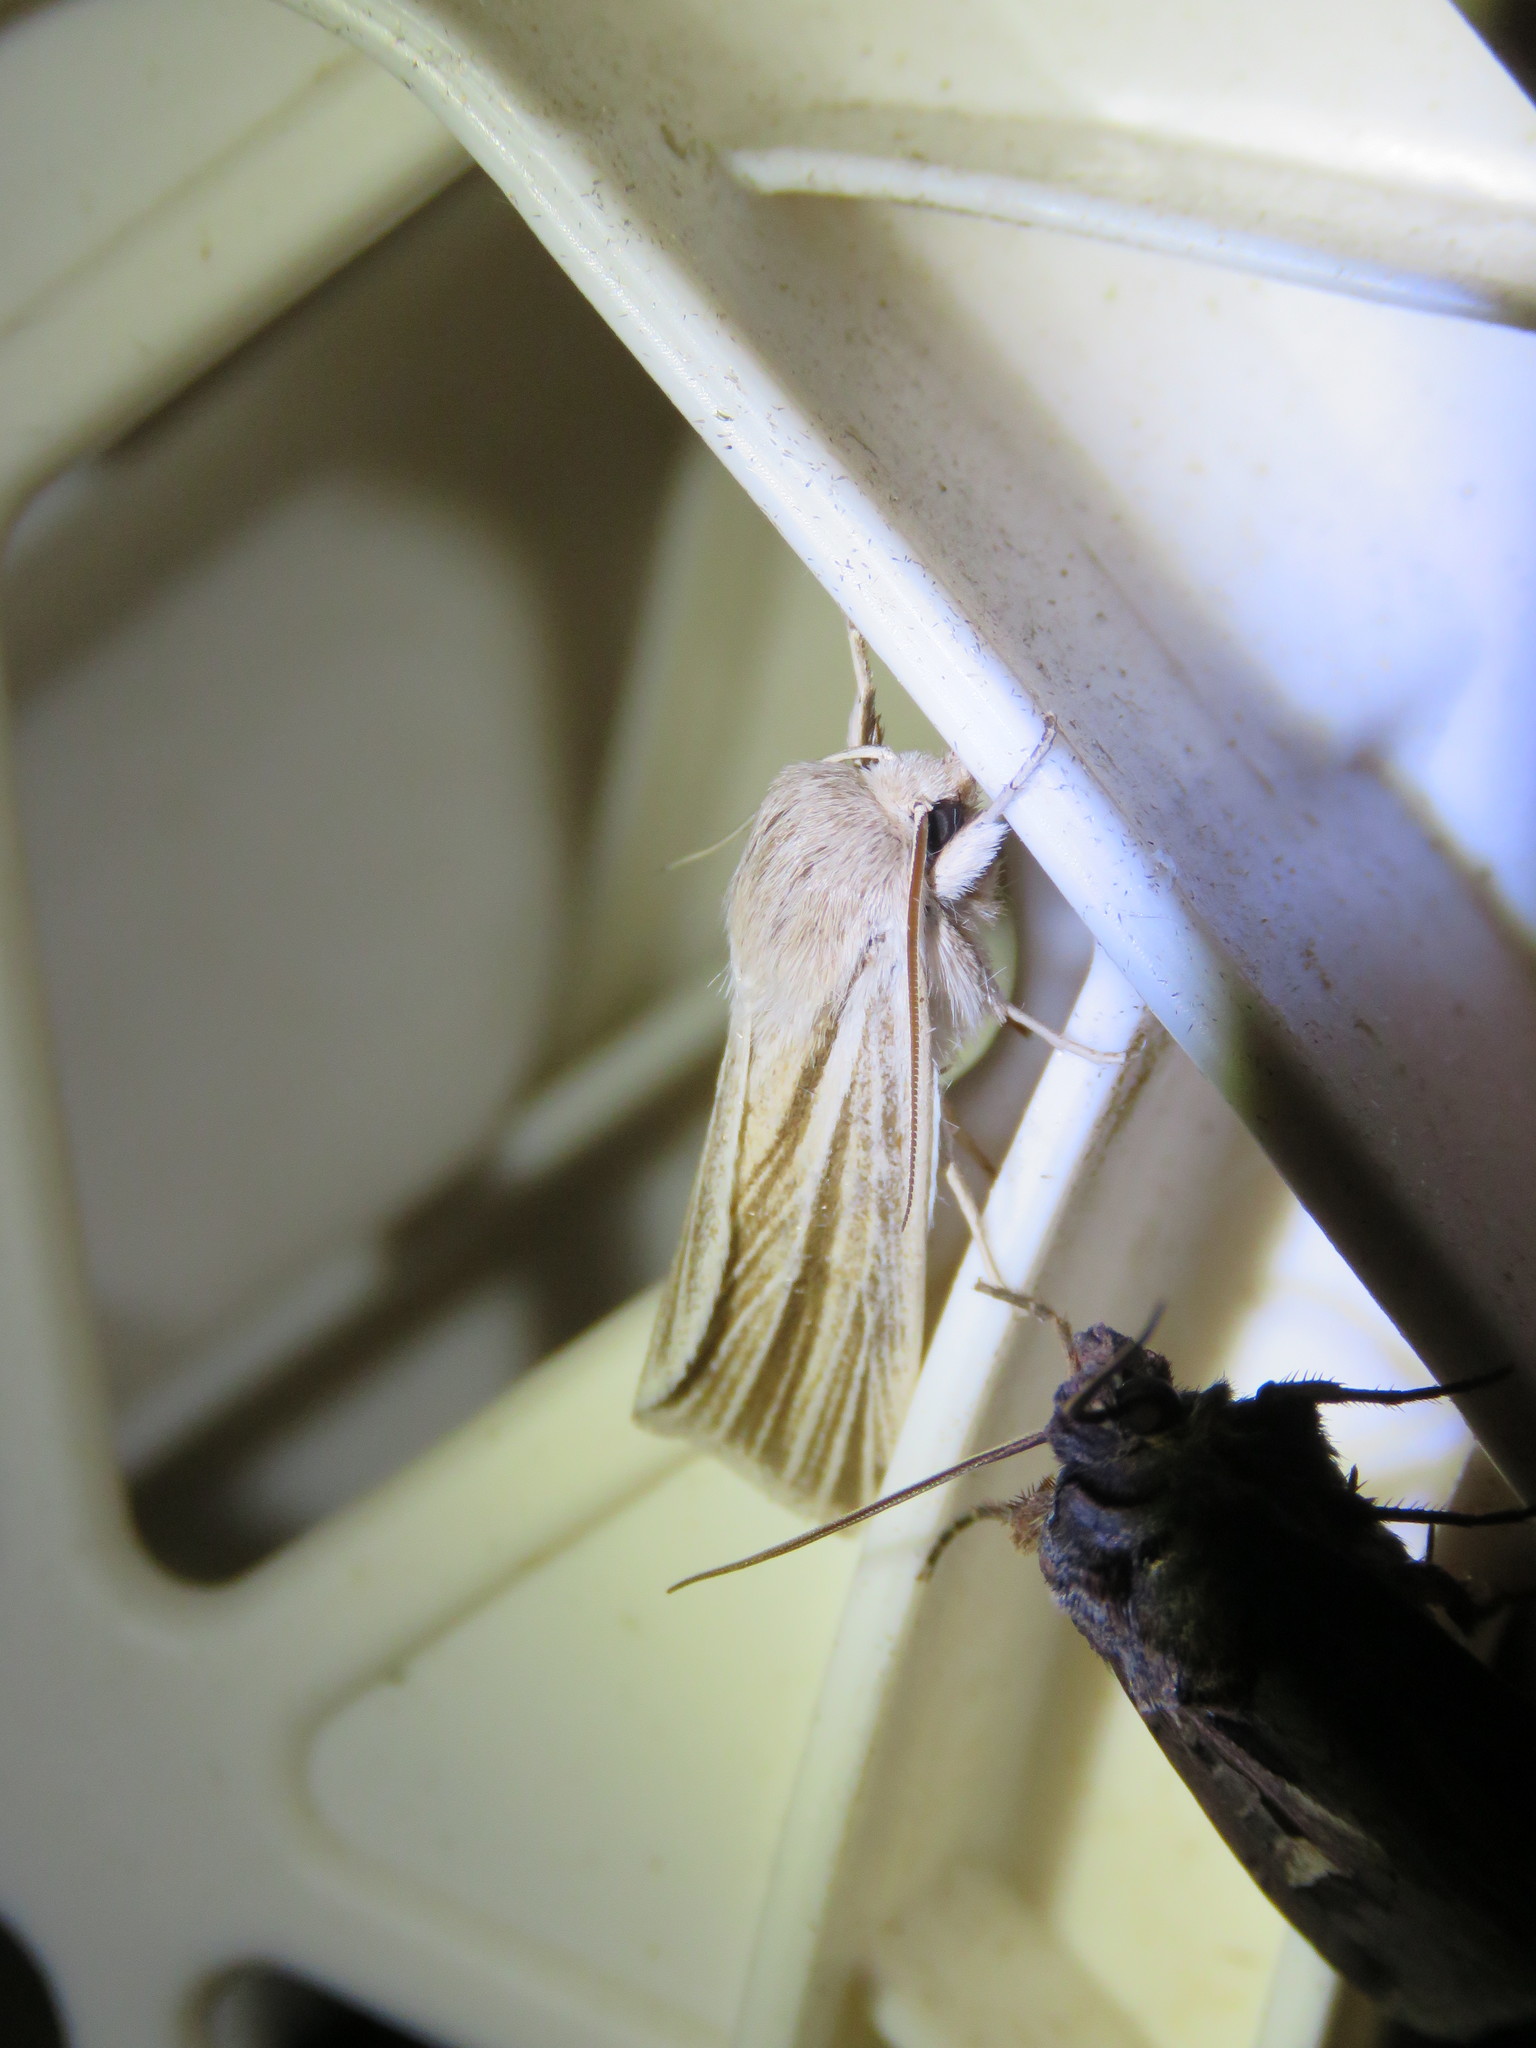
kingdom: Animalia
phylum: Arthropoda
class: Insecta
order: Lepidoptera
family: Noctuidae
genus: Acronicta
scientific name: Acronicta insularis
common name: Henry's marsh moth
